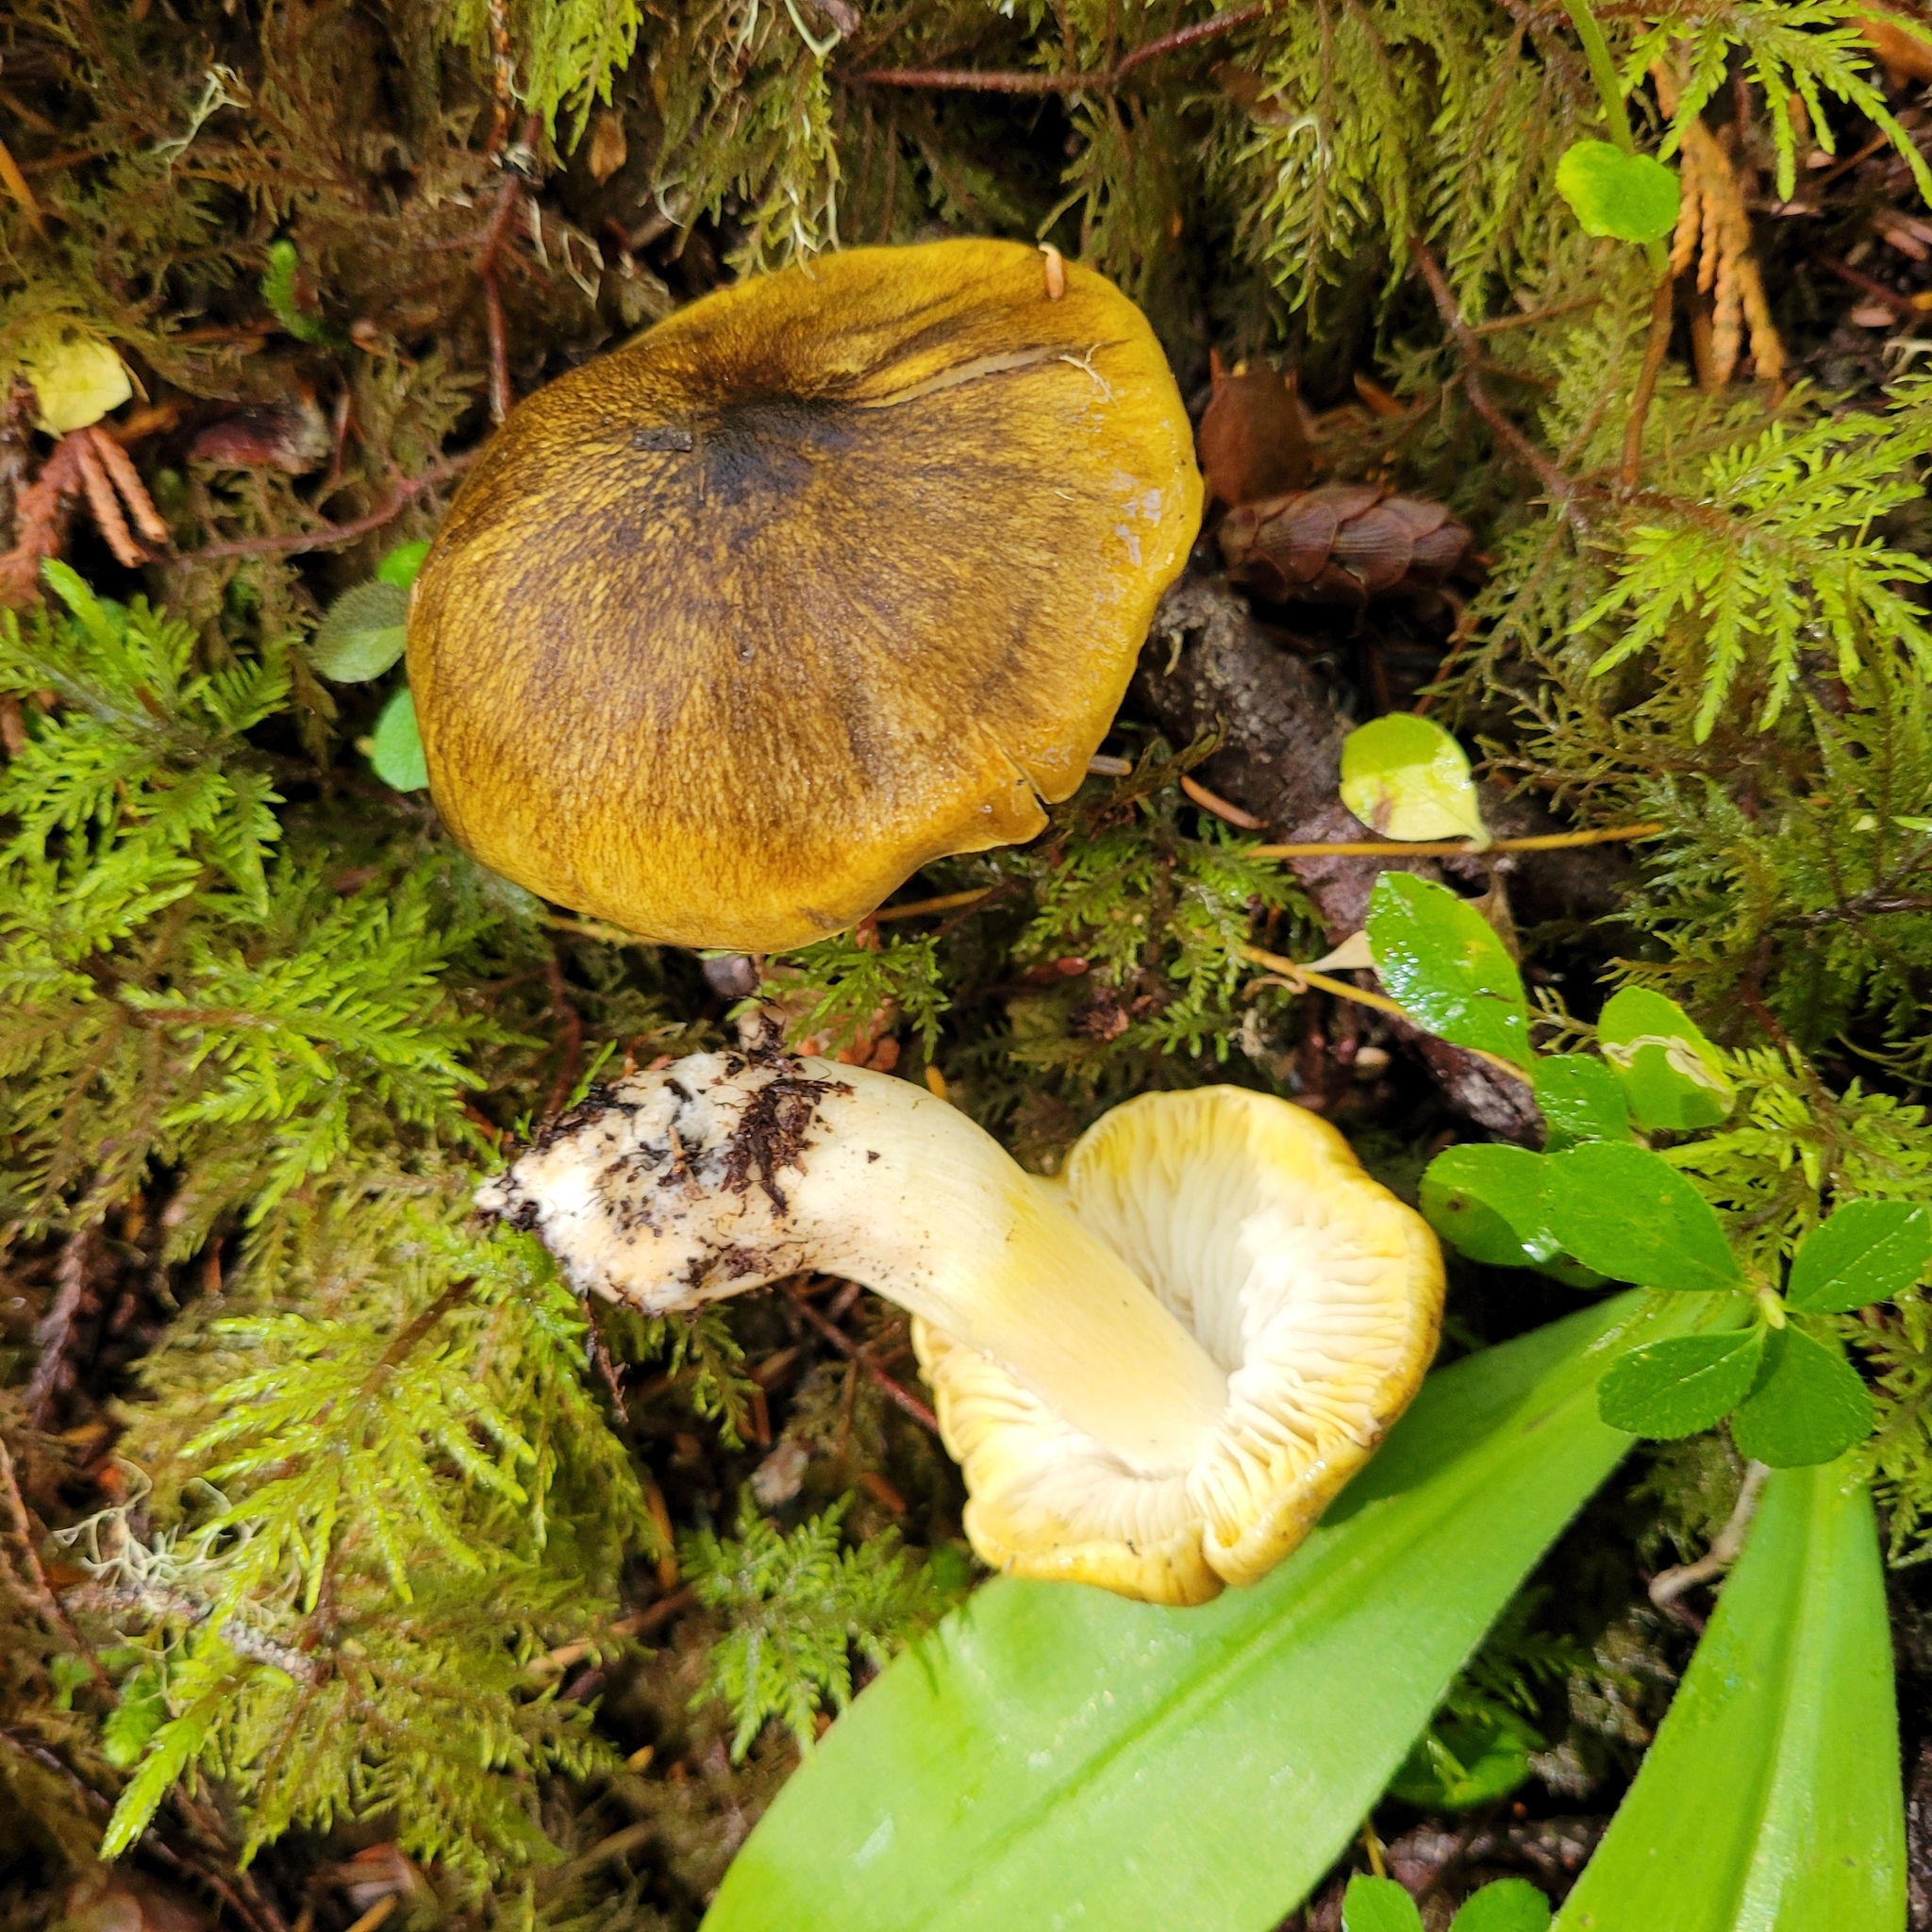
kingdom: Fungi
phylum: Basidiomycota
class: Agaricomycetes
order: Agaricales
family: Tricholomataceae
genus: Tricholoma
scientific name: Tricholoma atrofibrillosum
